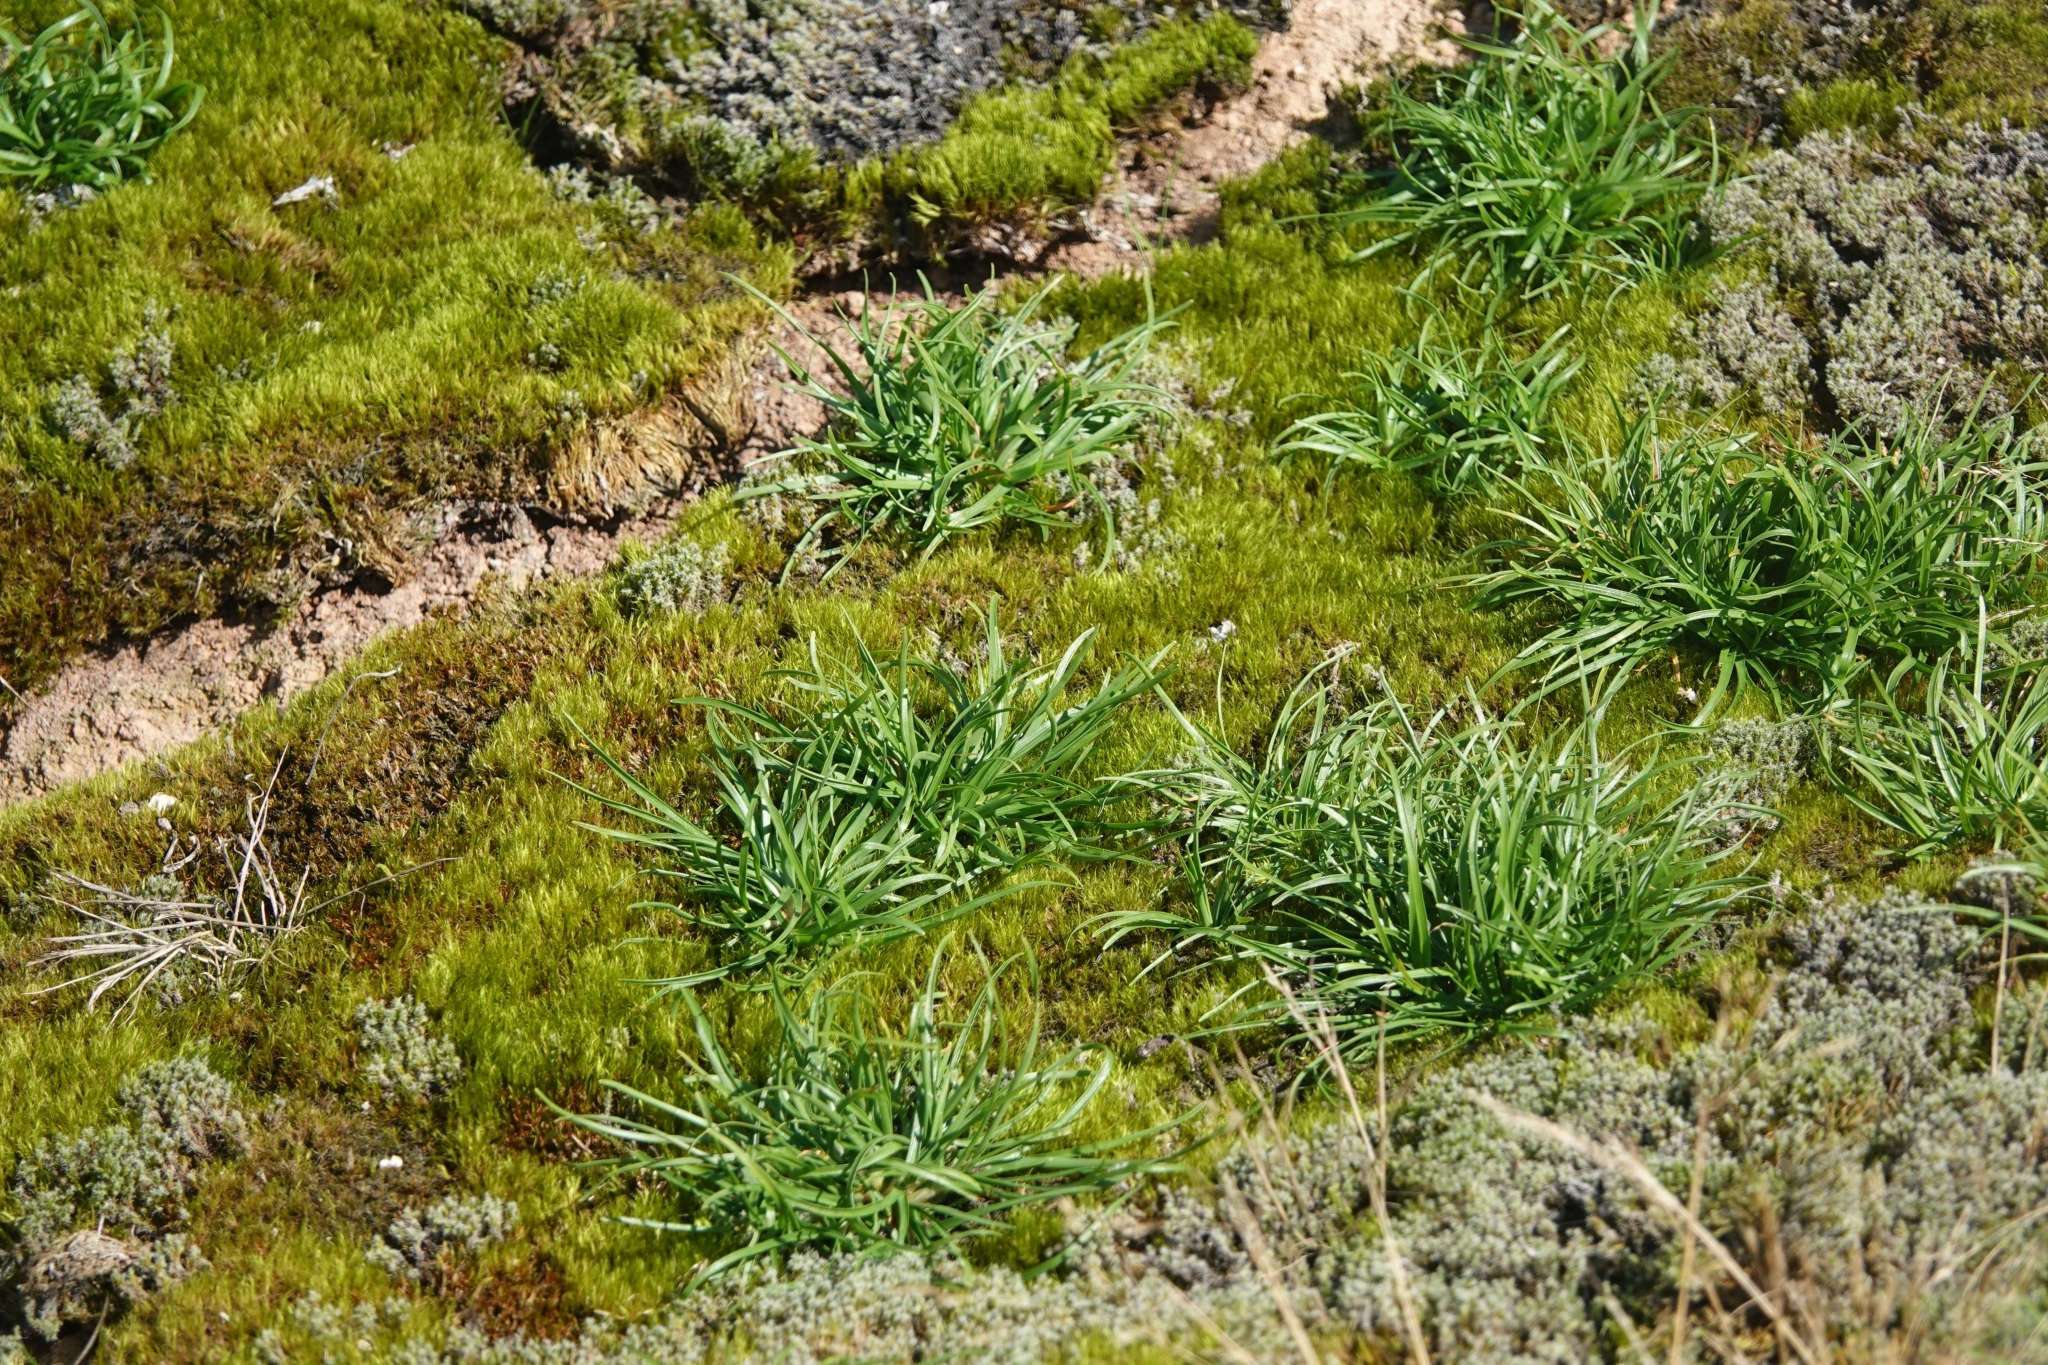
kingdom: Plantae
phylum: Tracheophyta
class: Liliopsida
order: Poales
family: Cyperaceae
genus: Fimbristylis
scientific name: Fimbristylis dichotoma
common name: Forked fimbry
